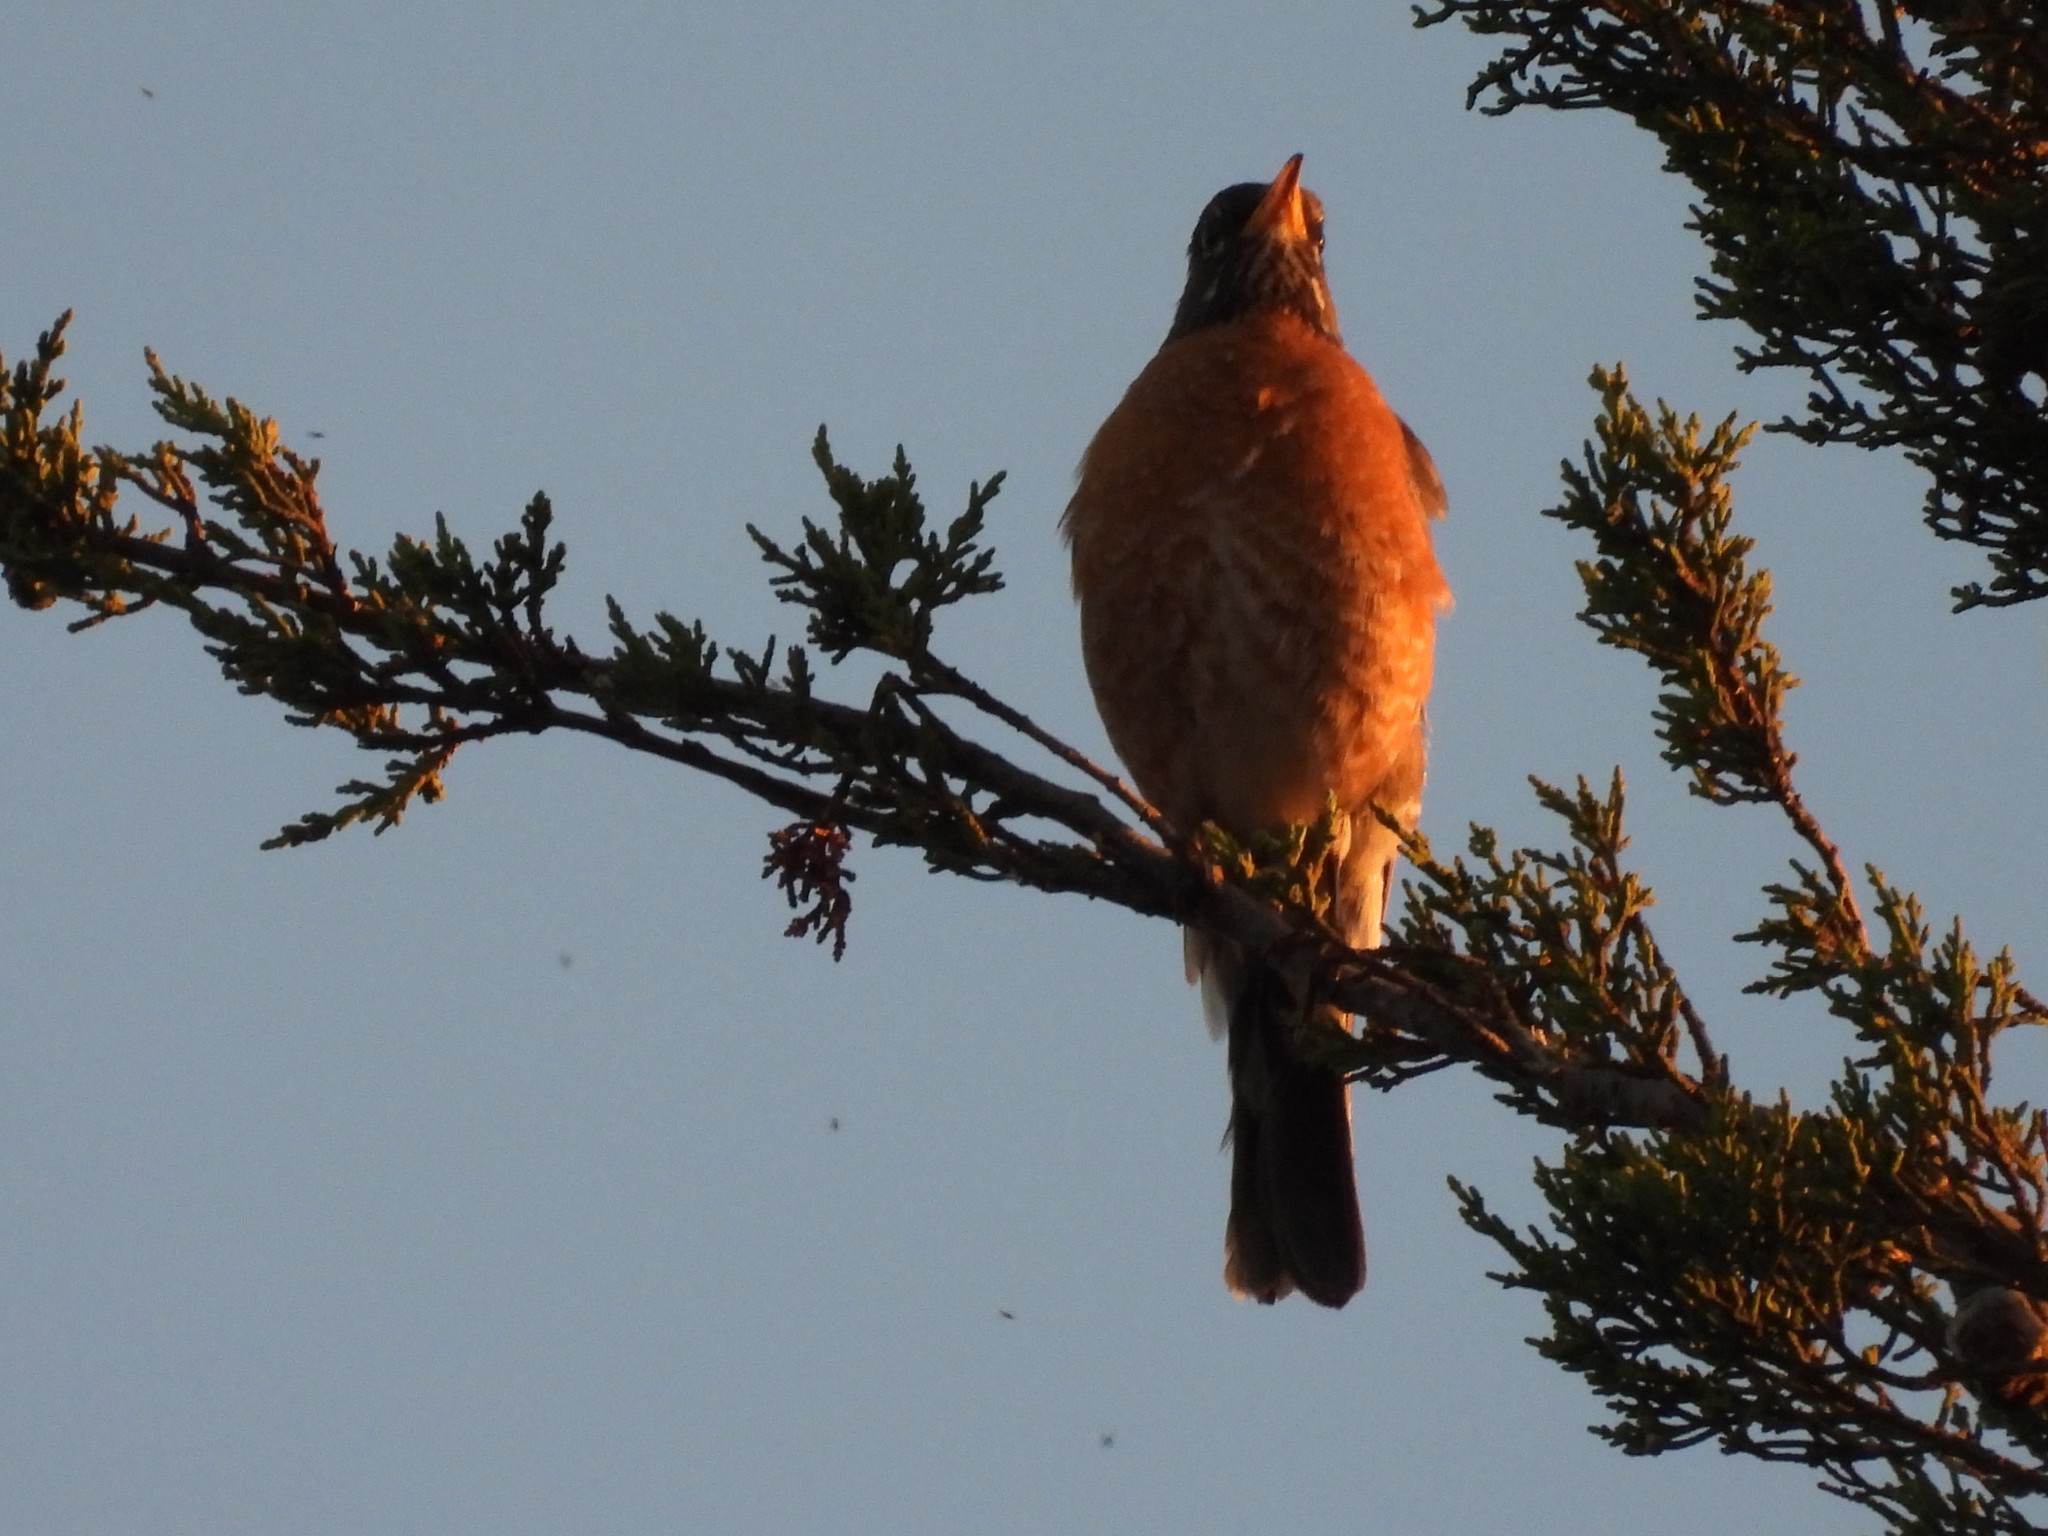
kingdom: Animalia
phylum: Chordata
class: Aves
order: Passeriformes
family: Turdidae
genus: Turdus
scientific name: Turdus migratorius
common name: American robin
